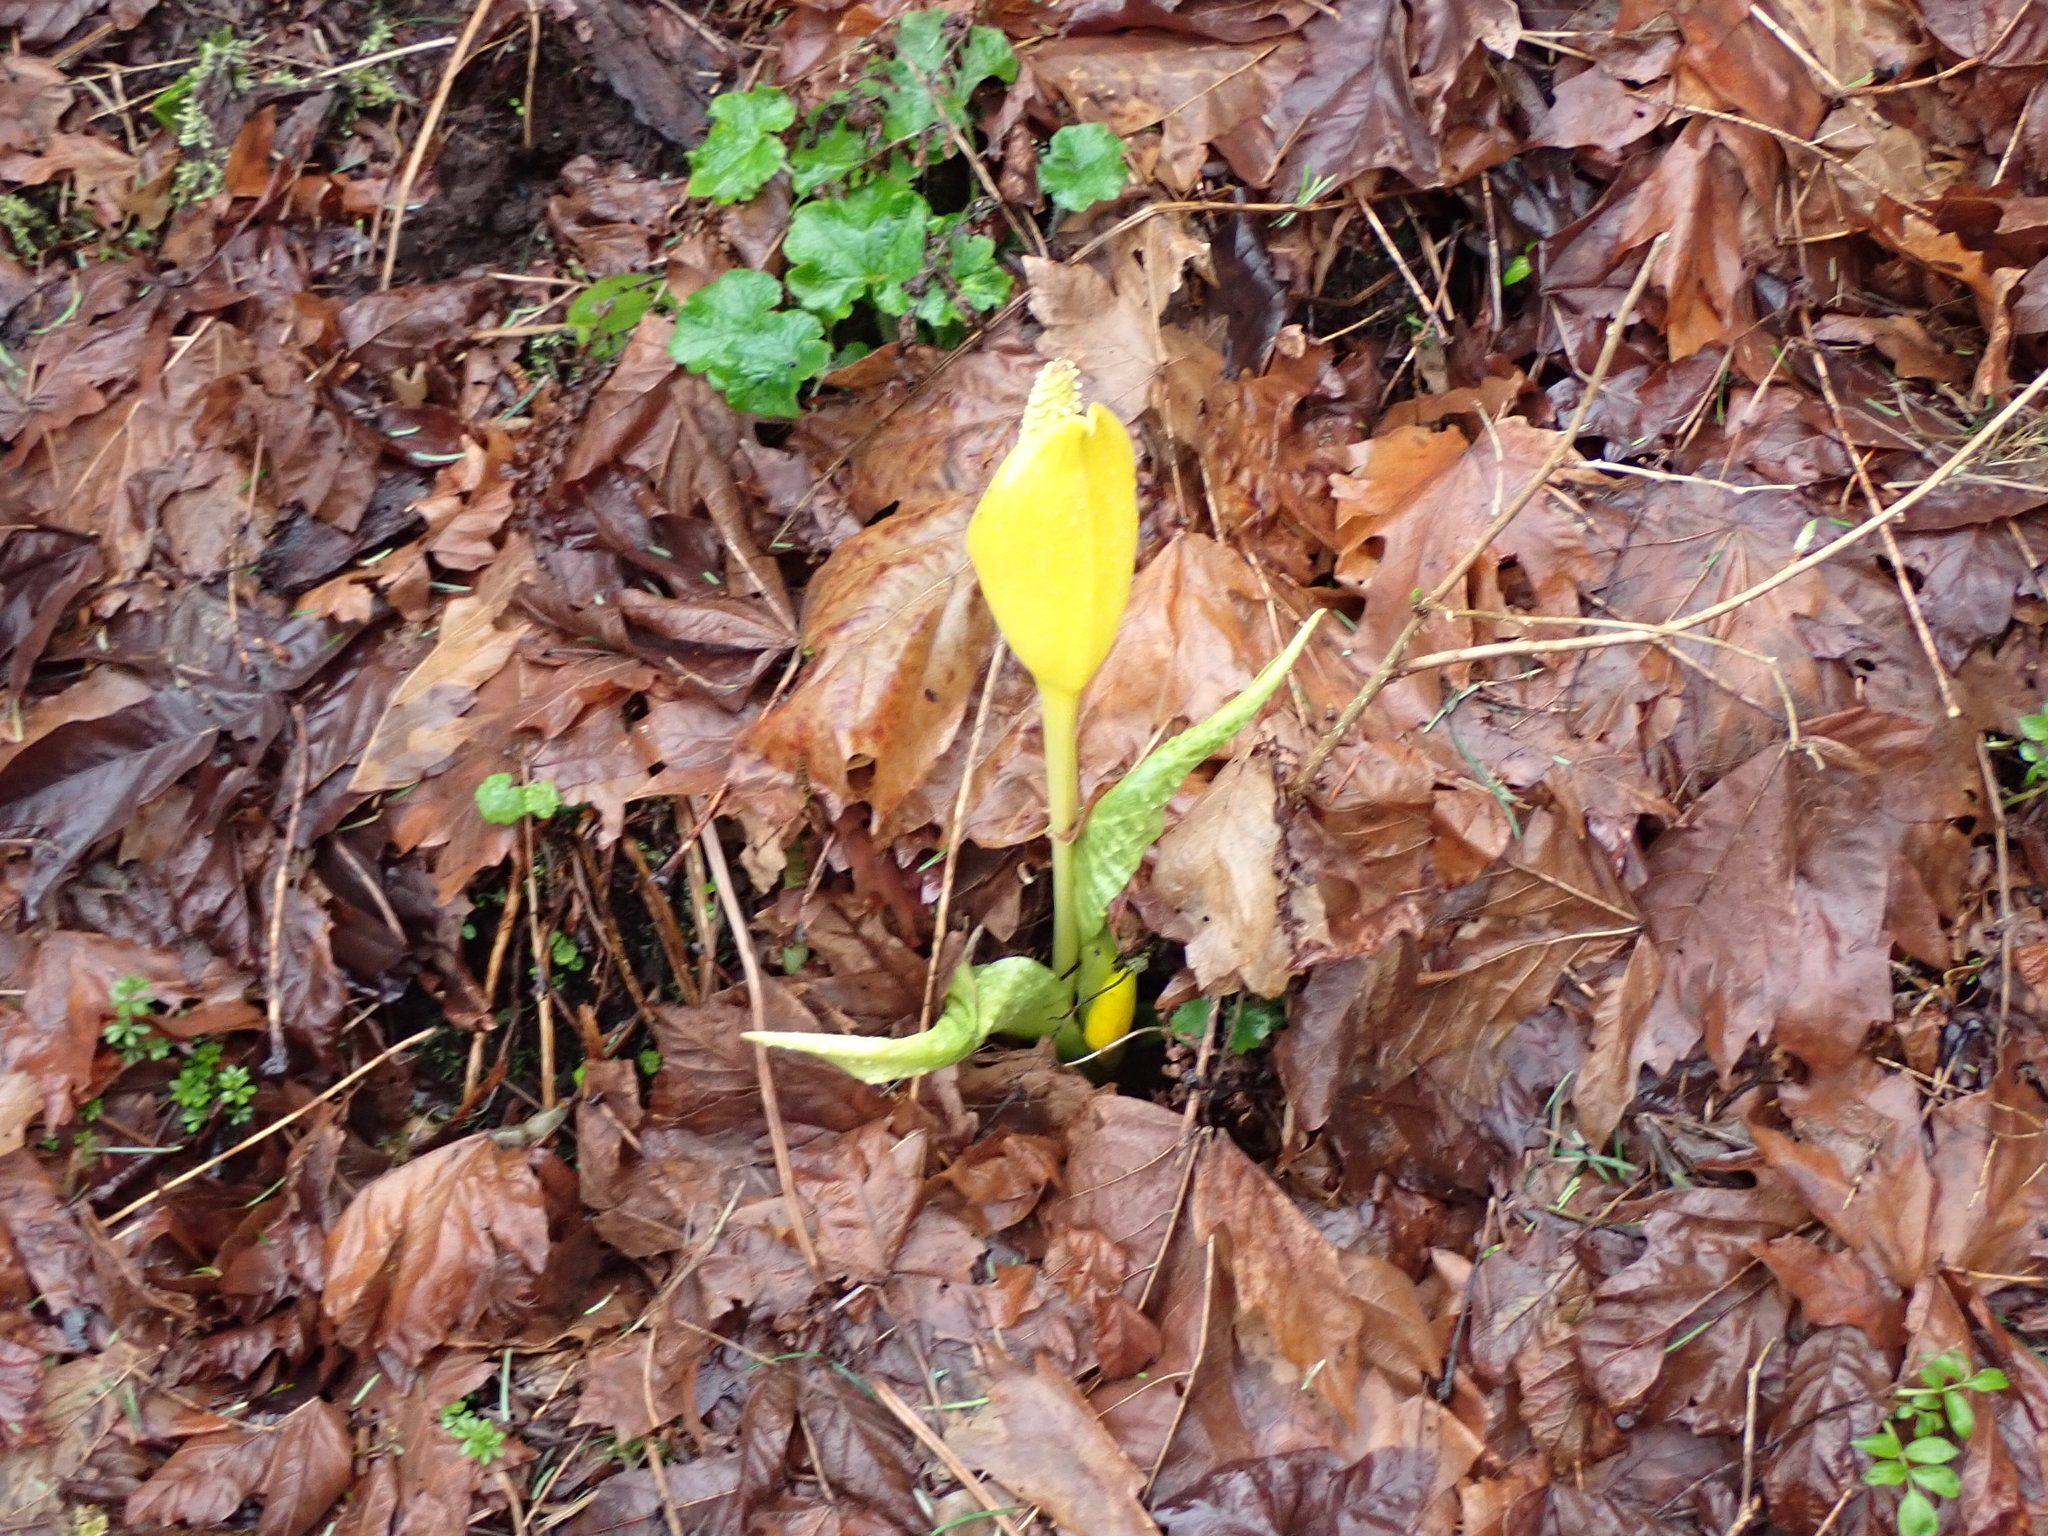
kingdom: Plantae
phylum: Tracheophyta
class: Liliopsida
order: Alismatales
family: Araceae
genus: Lysichiton
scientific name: Lysichiton americanus
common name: American skunk cabbage
